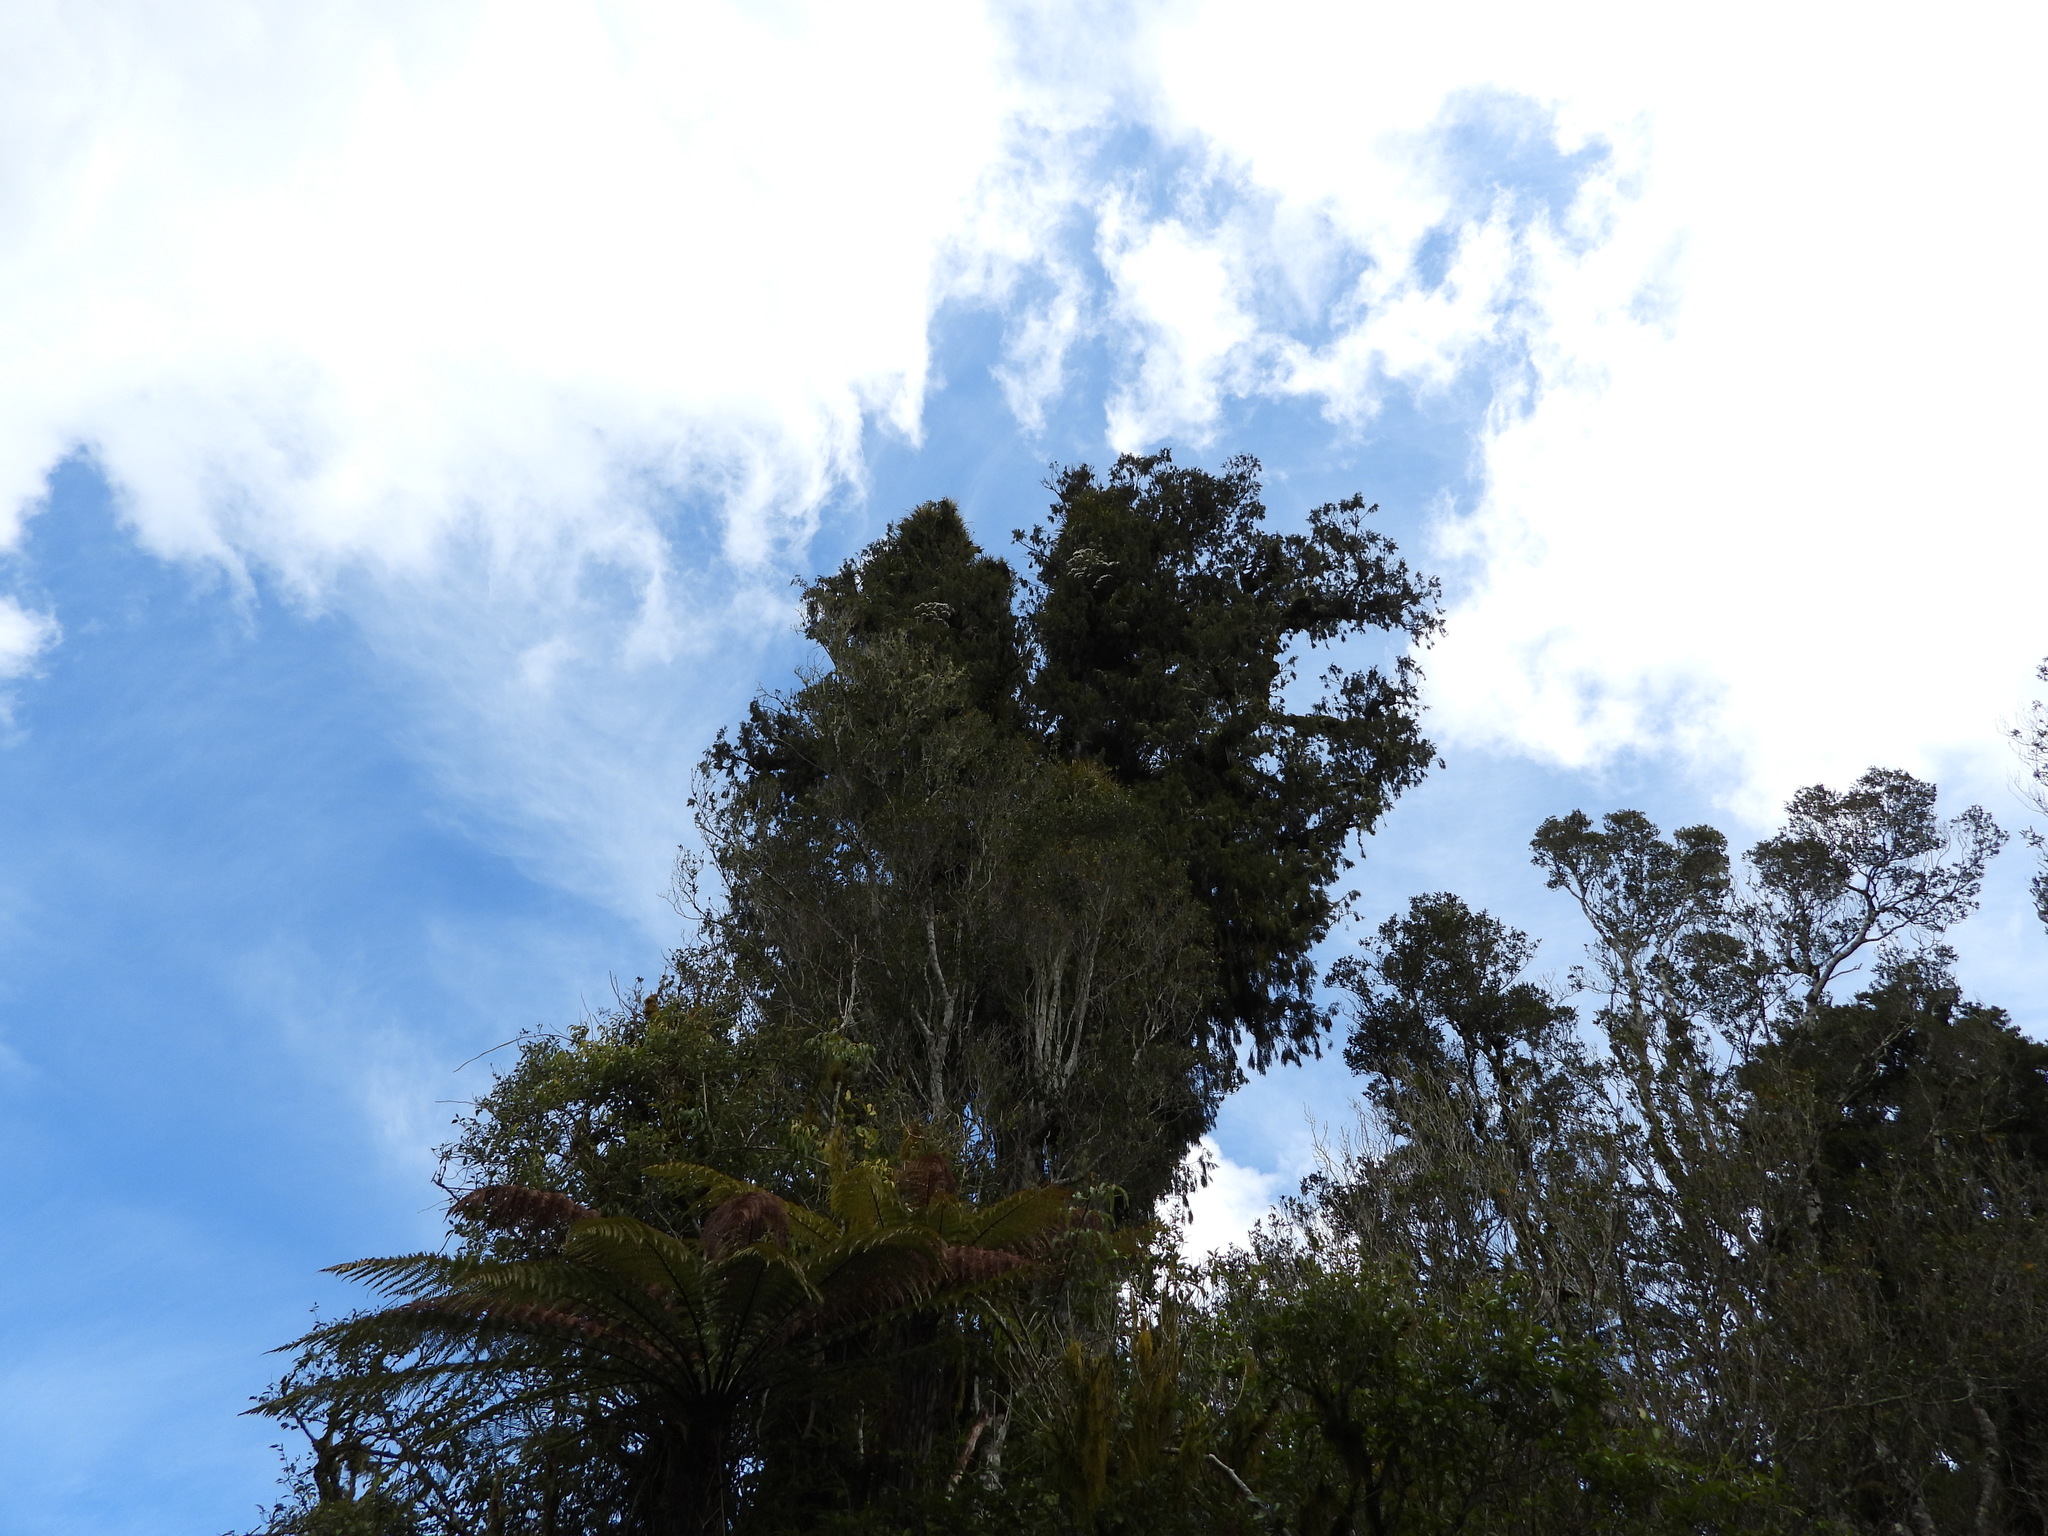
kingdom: Plantae
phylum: Tracheophyta
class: Magnoliopsida
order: Asterales
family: Asteraceae
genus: Brachyglottis
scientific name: Brachyglottis kirkii
